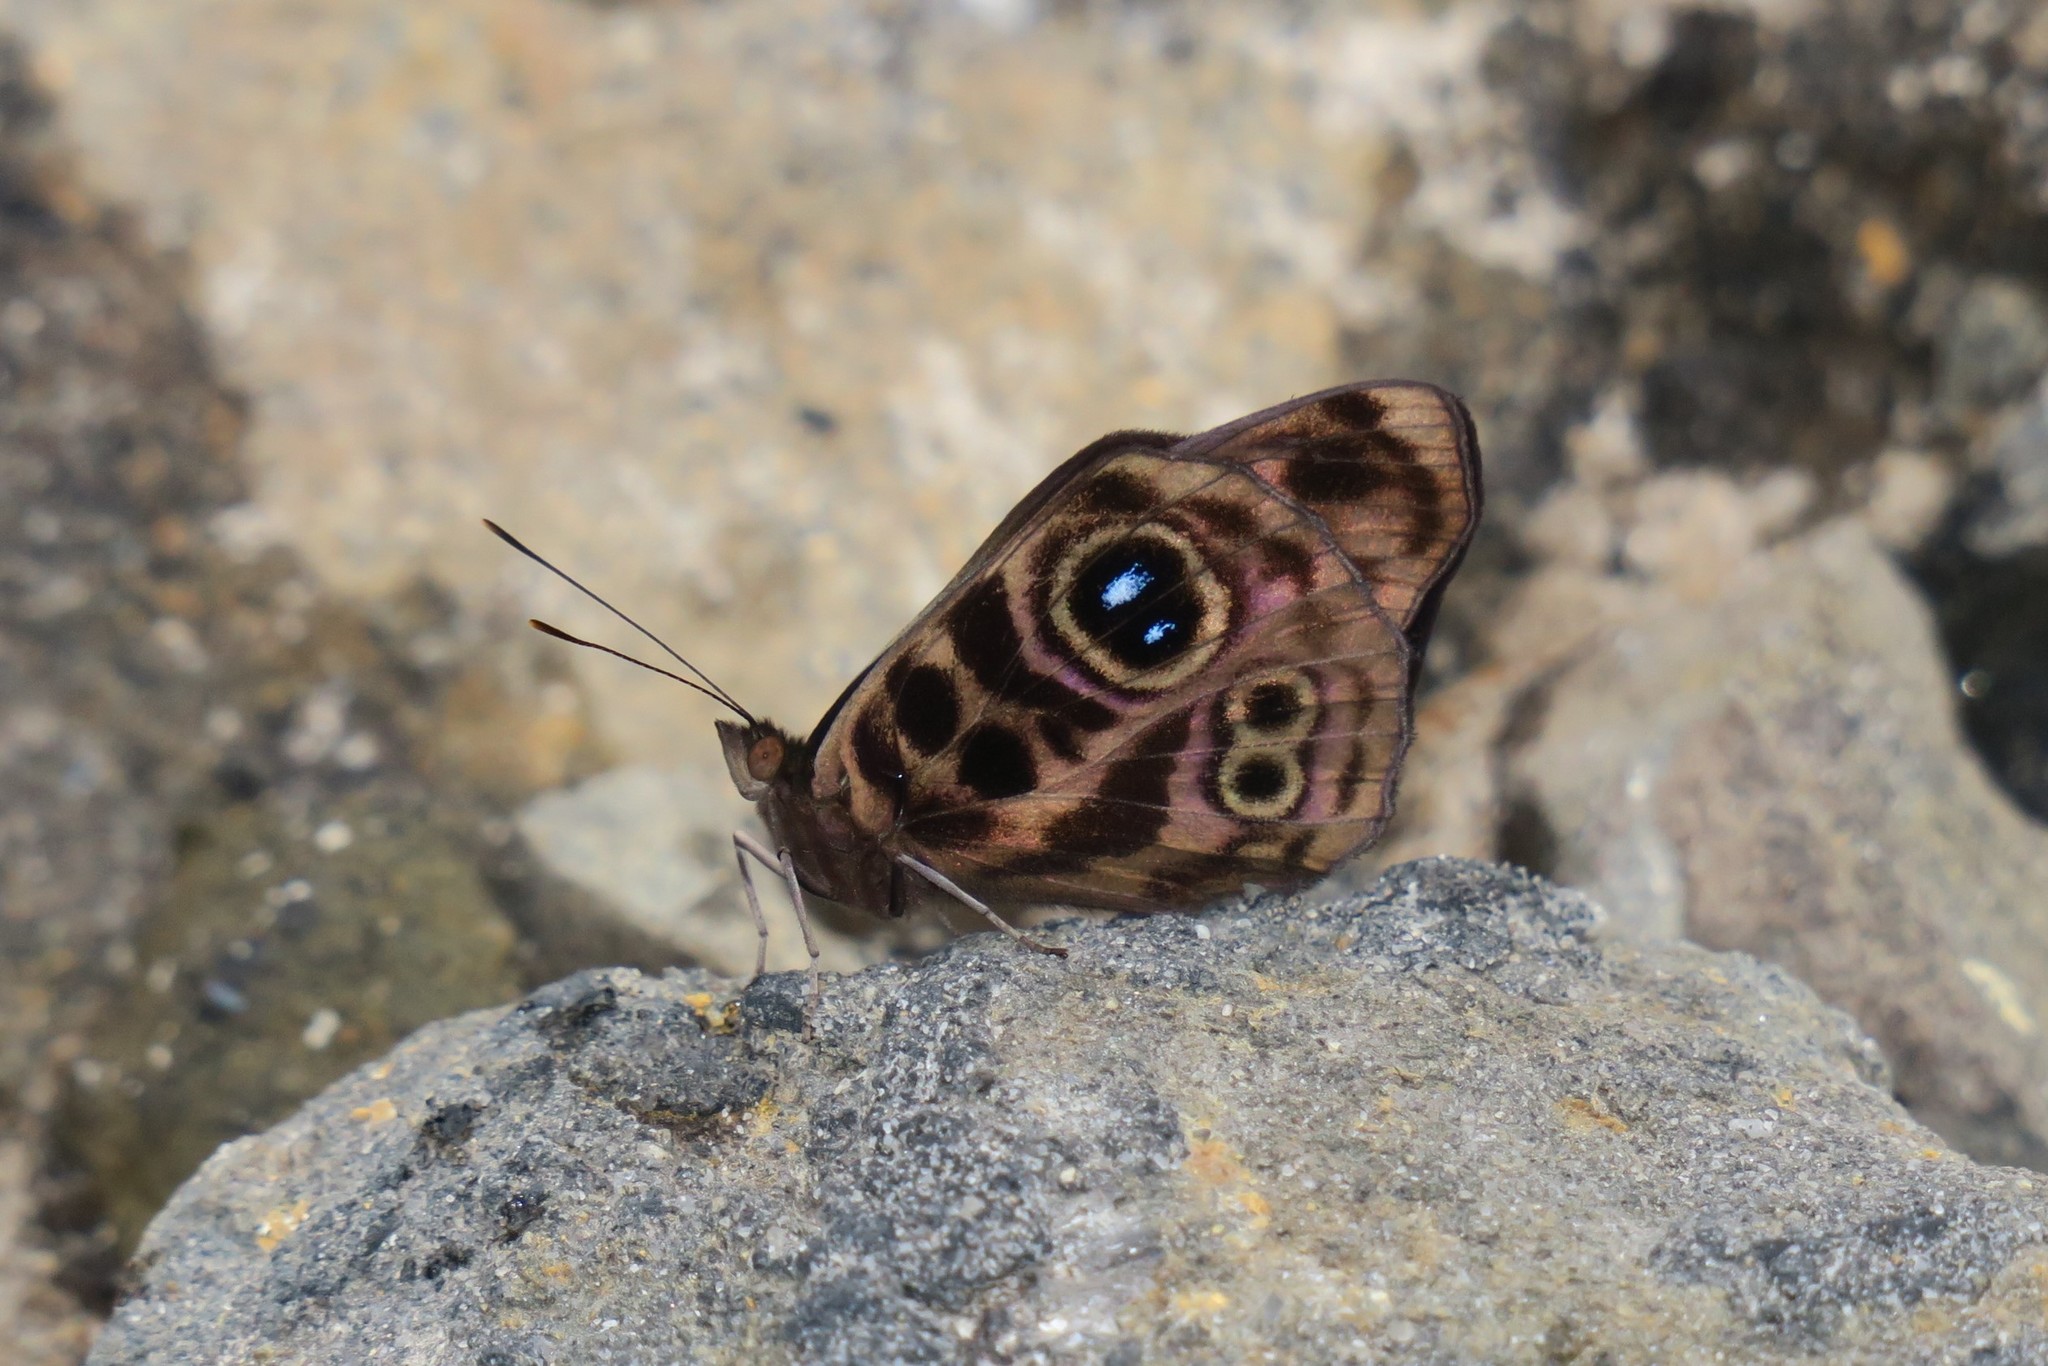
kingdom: Animalia
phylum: Arthropoda
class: Insecta
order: Lepidoptera
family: Nymphalidae
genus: Eunica
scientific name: Eunica norica
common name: Norica purplewing
